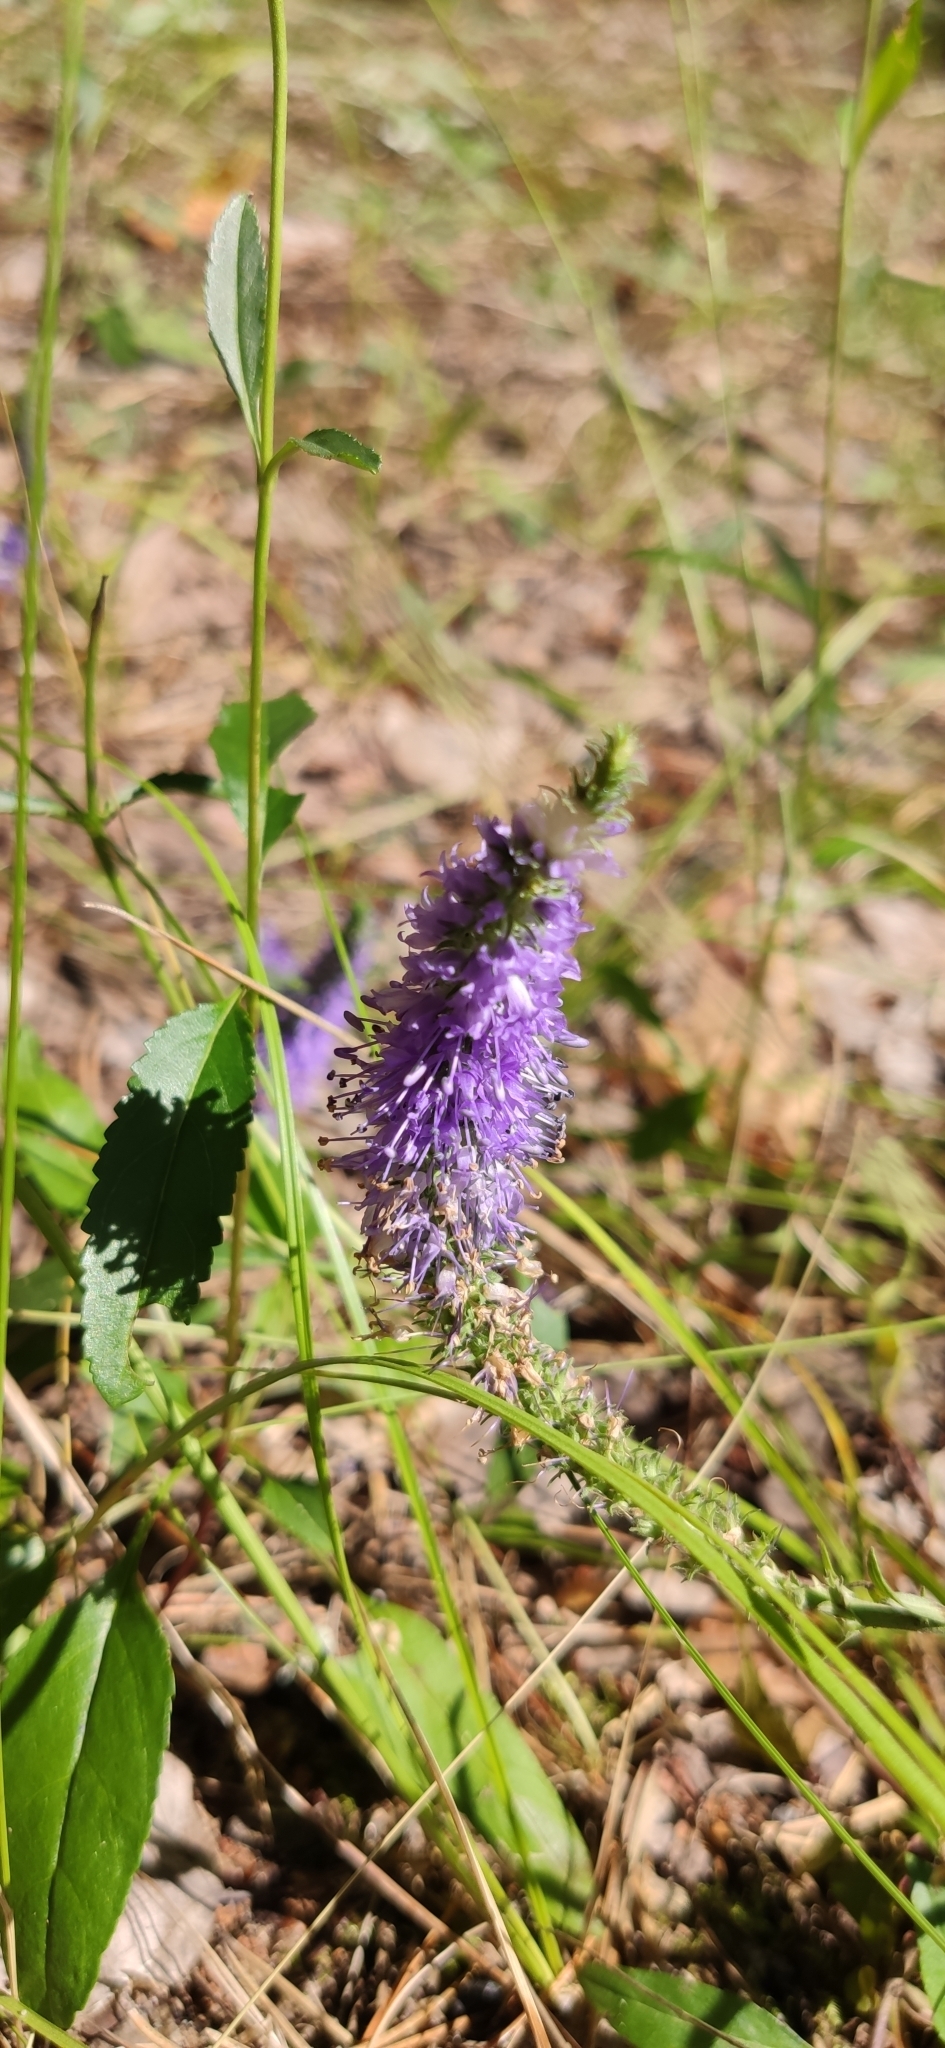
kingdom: Plantae
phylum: Tracheophyta
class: Magnoliopsida
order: Lamiales
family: Plantaginaceae
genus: Veronica
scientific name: Veronica longifolia
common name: Garden speedwell
